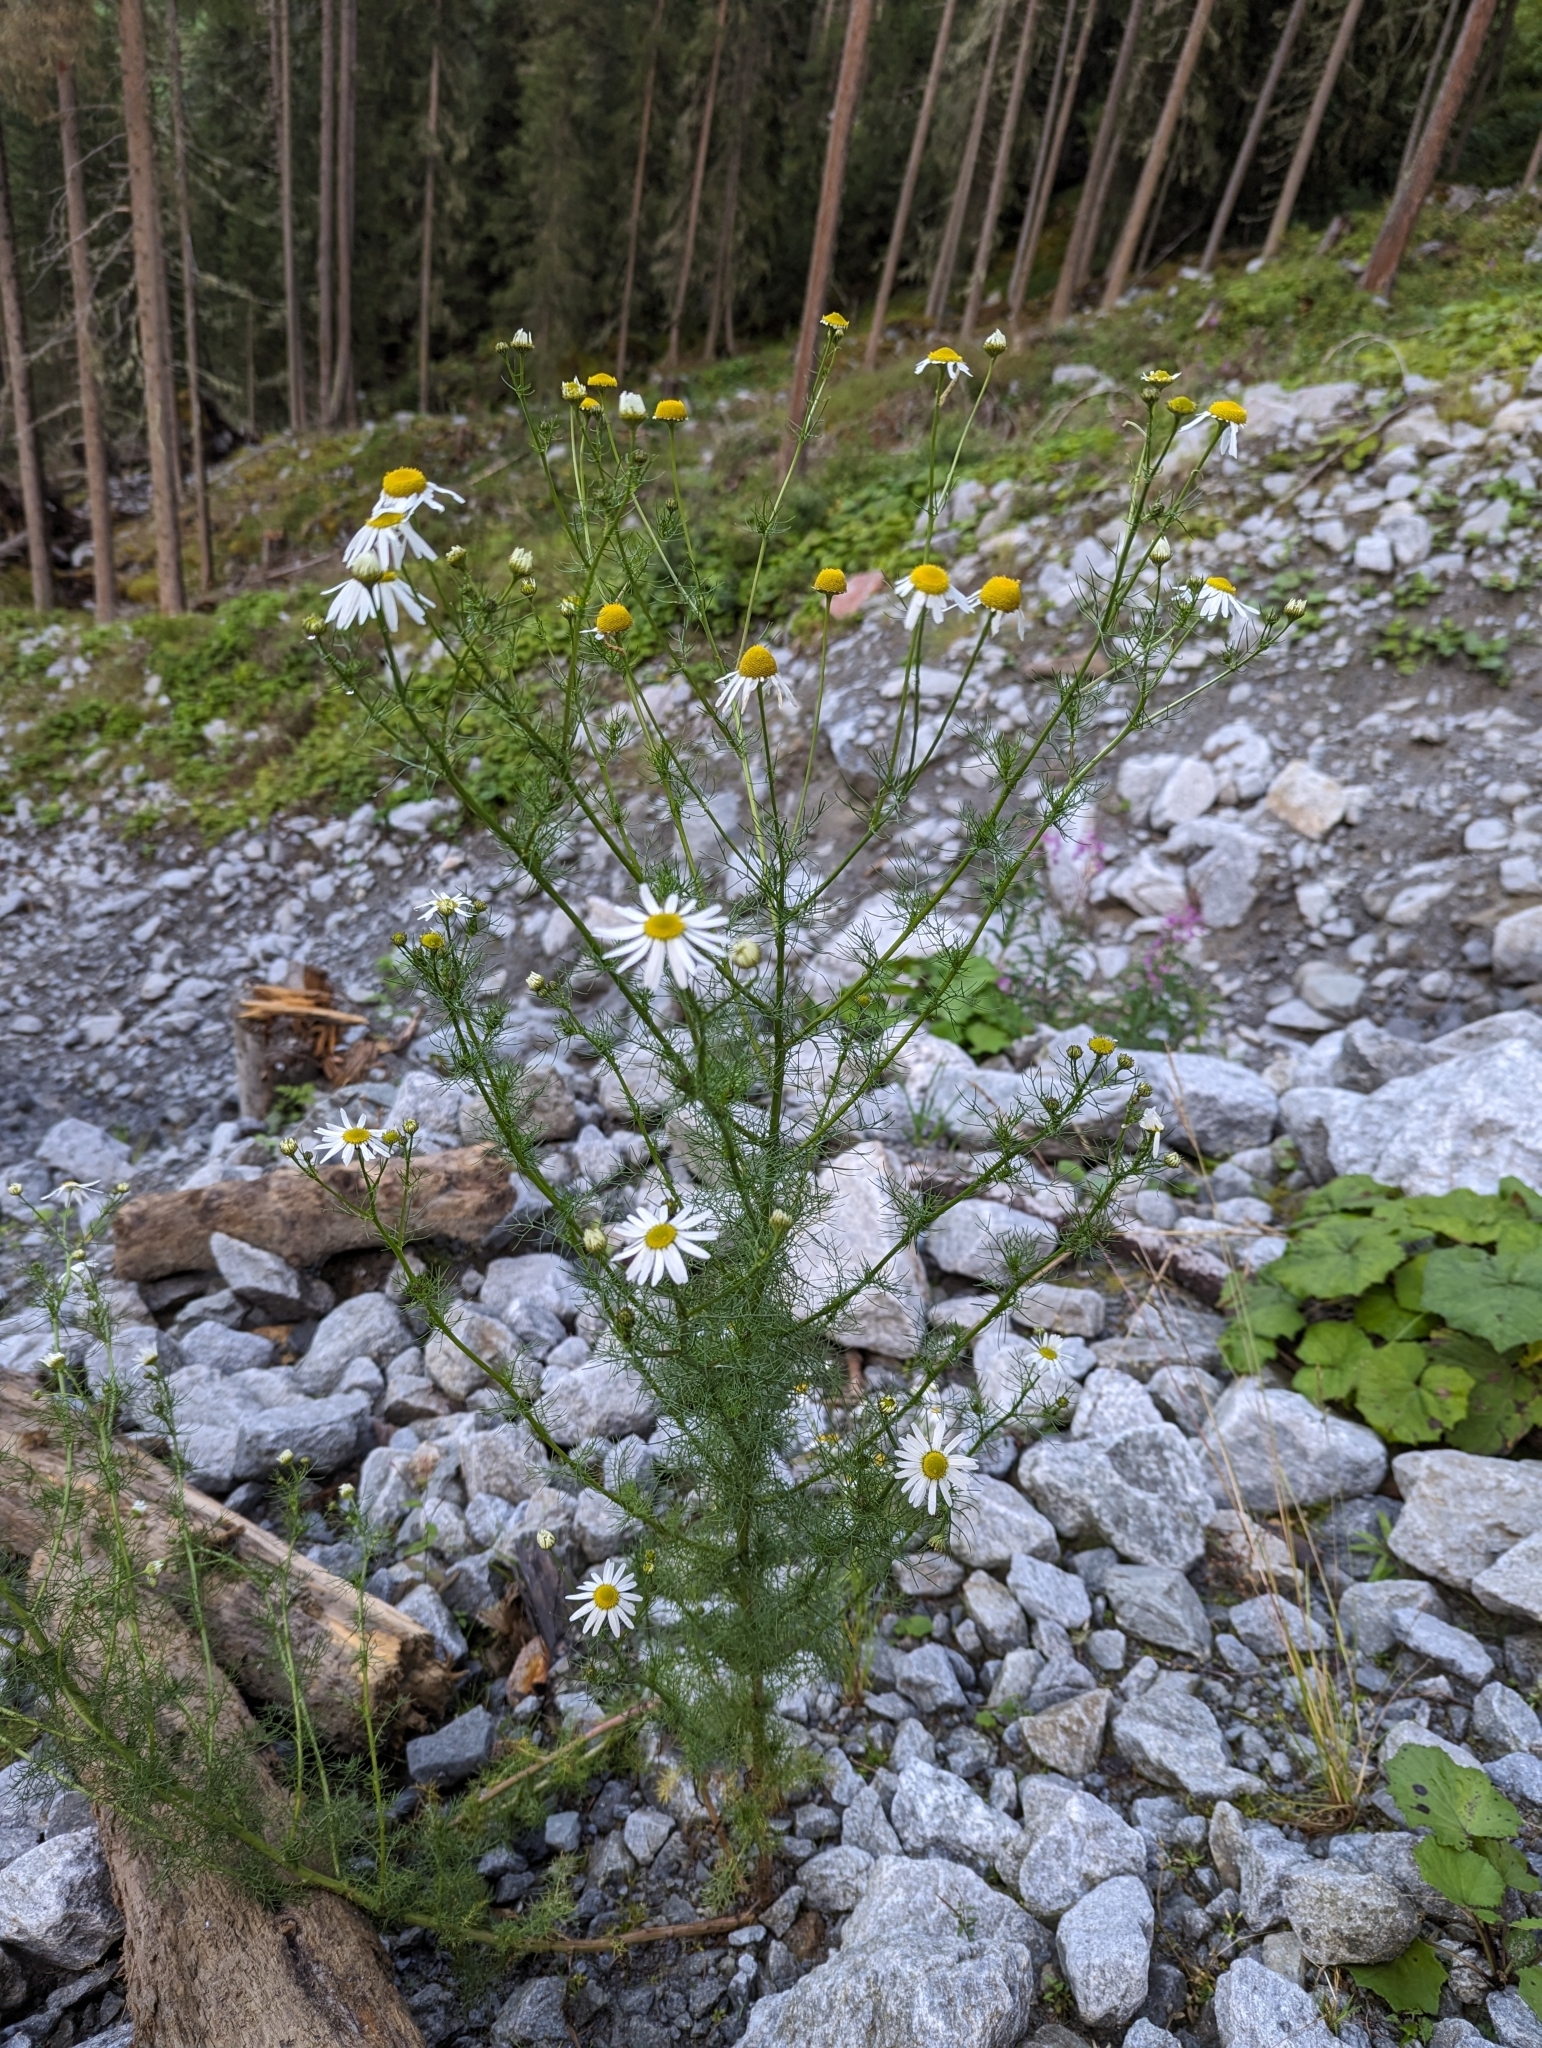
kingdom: Plantae
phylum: Tracheophyta
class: Magnoliopsida
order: Asterales
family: Asteraceae
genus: Tripleurospermum
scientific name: Tripleurospermum inodorum
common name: Scentless mayweed
